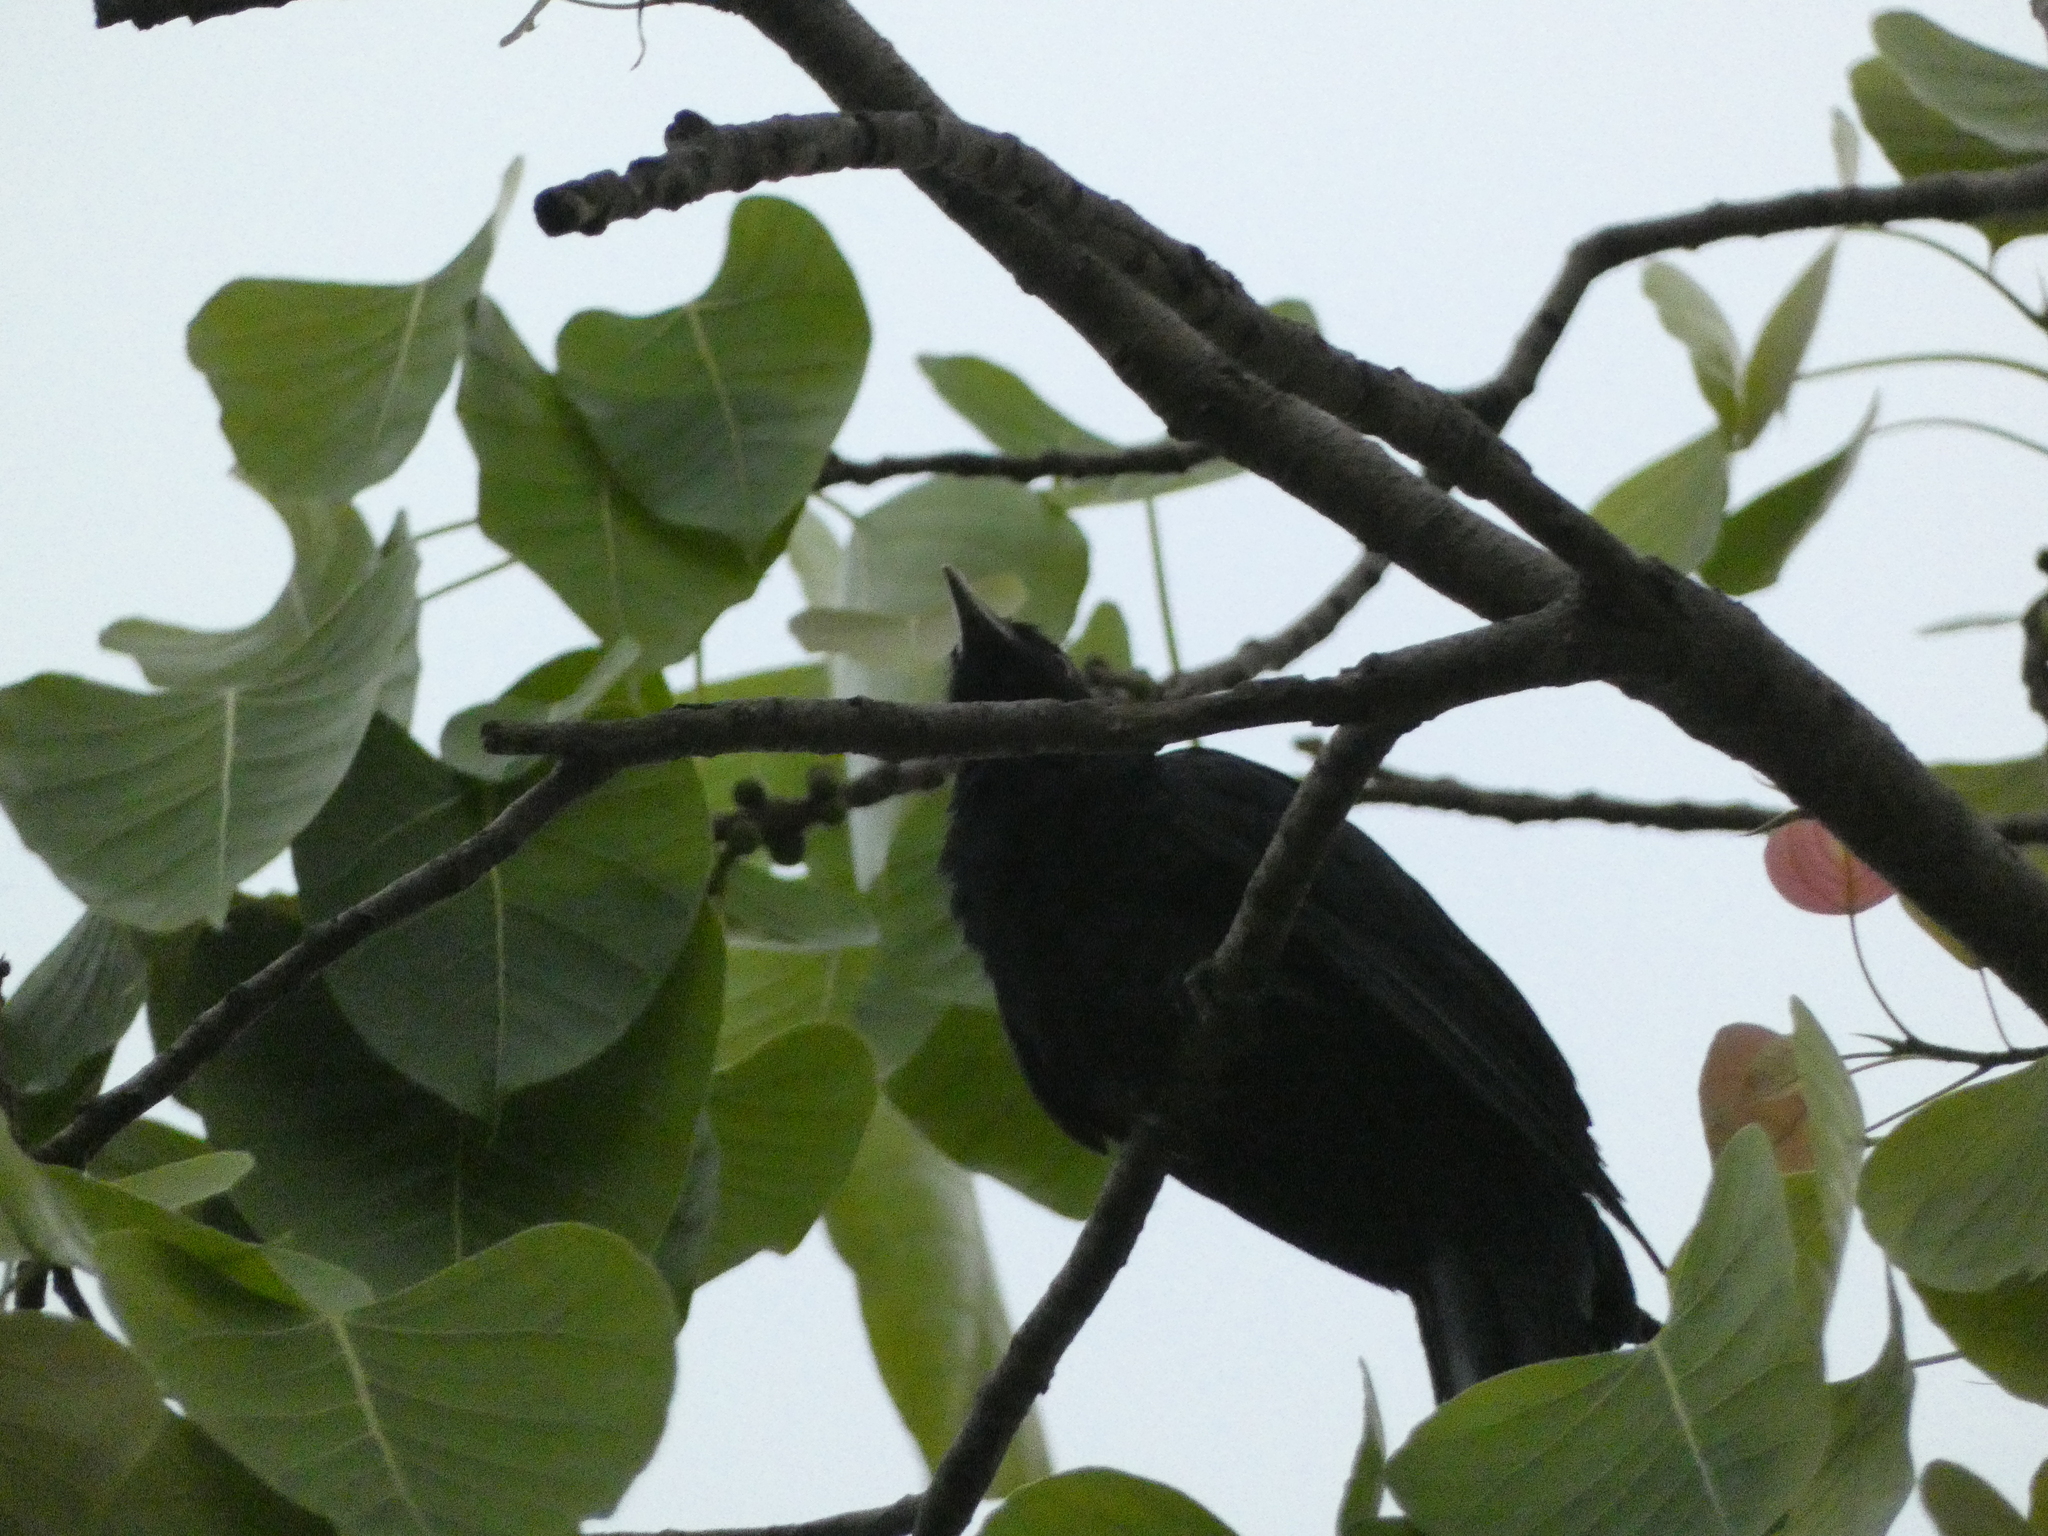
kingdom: Animalia
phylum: Chordata
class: Aves
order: Cuculiformes
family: Cuculidae
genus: Eudynamys
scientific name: Eudynamys scolopaceus
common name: Asian koel
